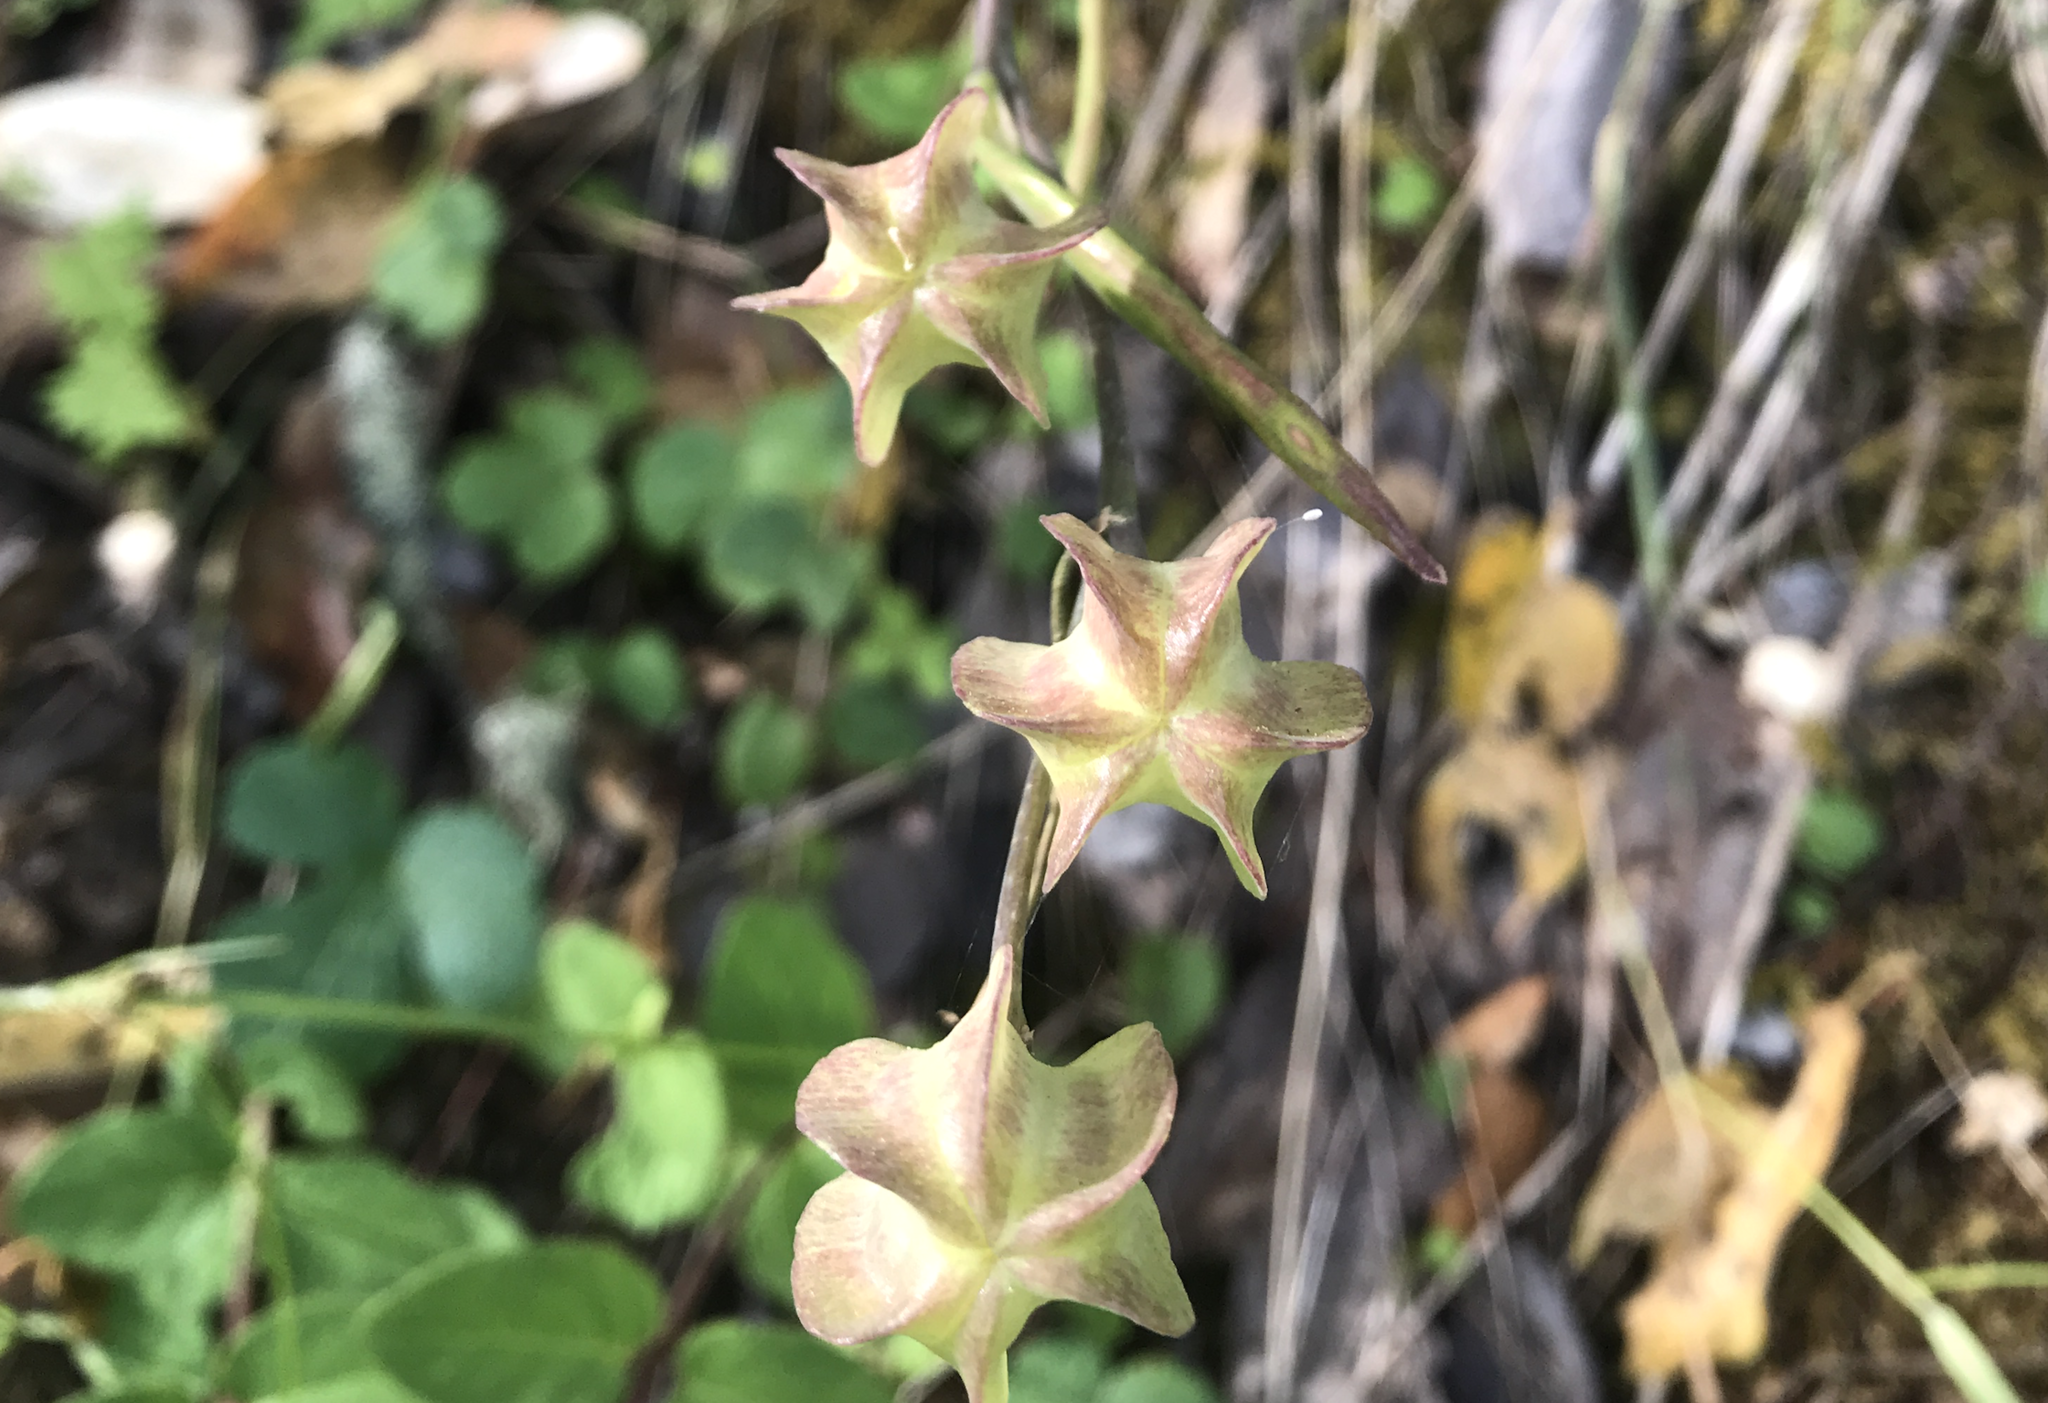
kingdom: Plantae
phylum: Tracheophyta
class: Liliopsida
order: Liliales
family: Liliaceae
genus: Fritillaria
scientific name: Fritillaria affinis
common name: Ojai fritillary
